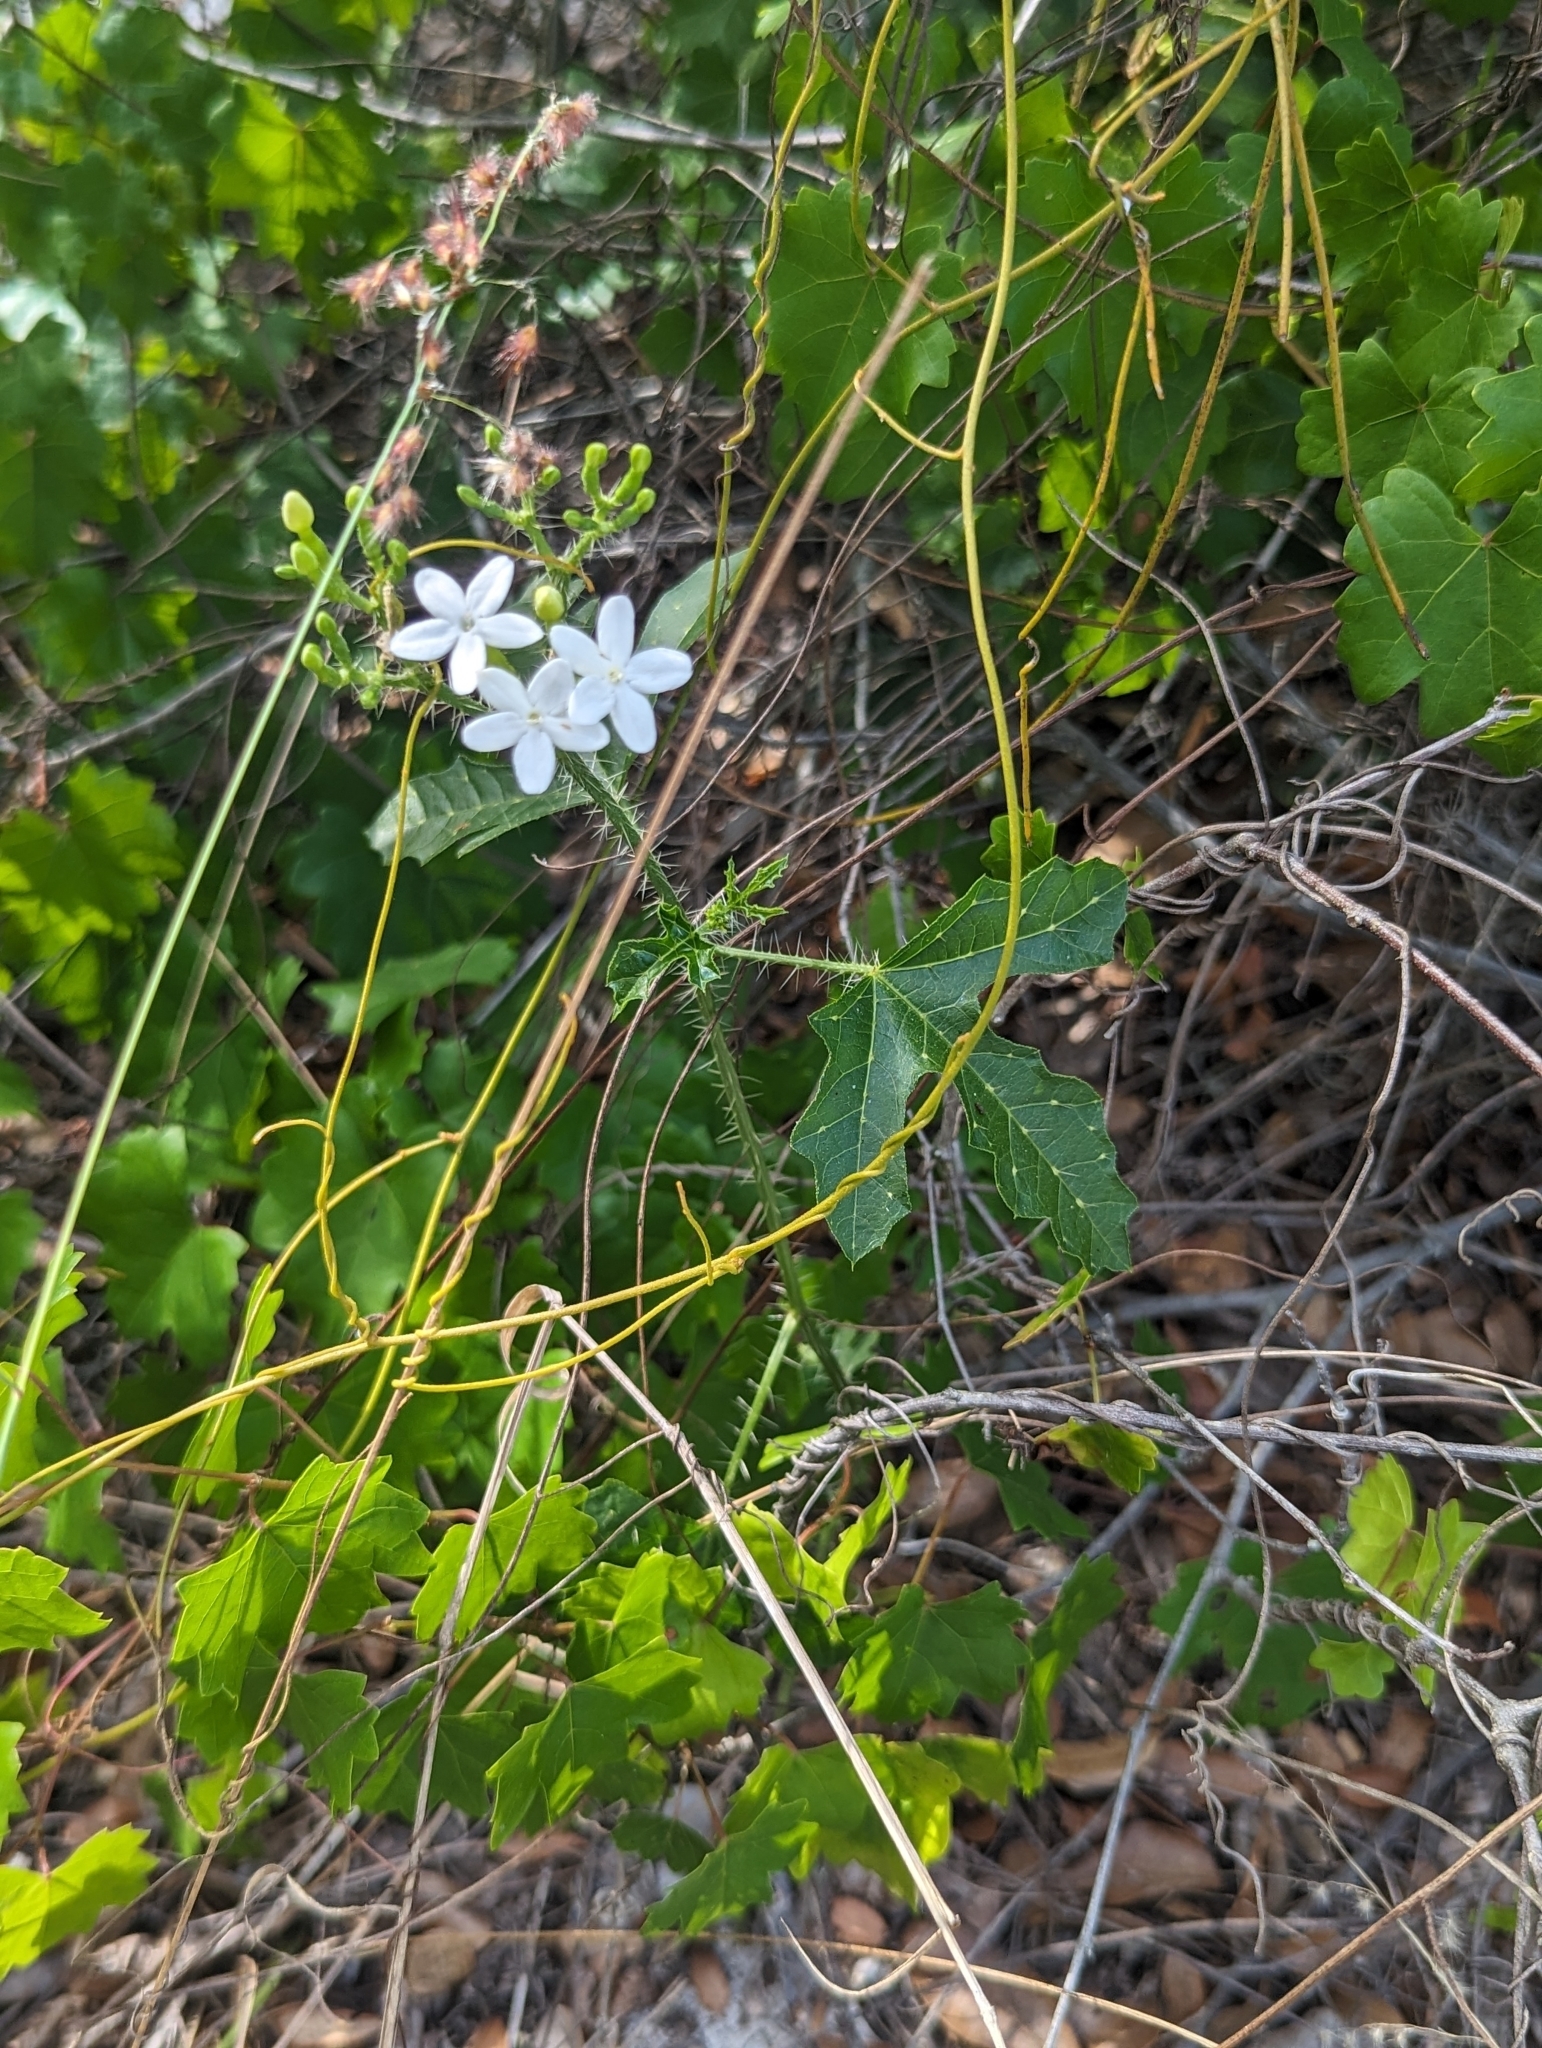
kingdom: Plantae
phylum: Tracheophyta
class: Magnoliopsida
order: Malpighiales
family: Euphorbiaceae
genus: Cnidoscolus
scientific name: Cnidoscolus stimulosus
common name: Bull-nettle
